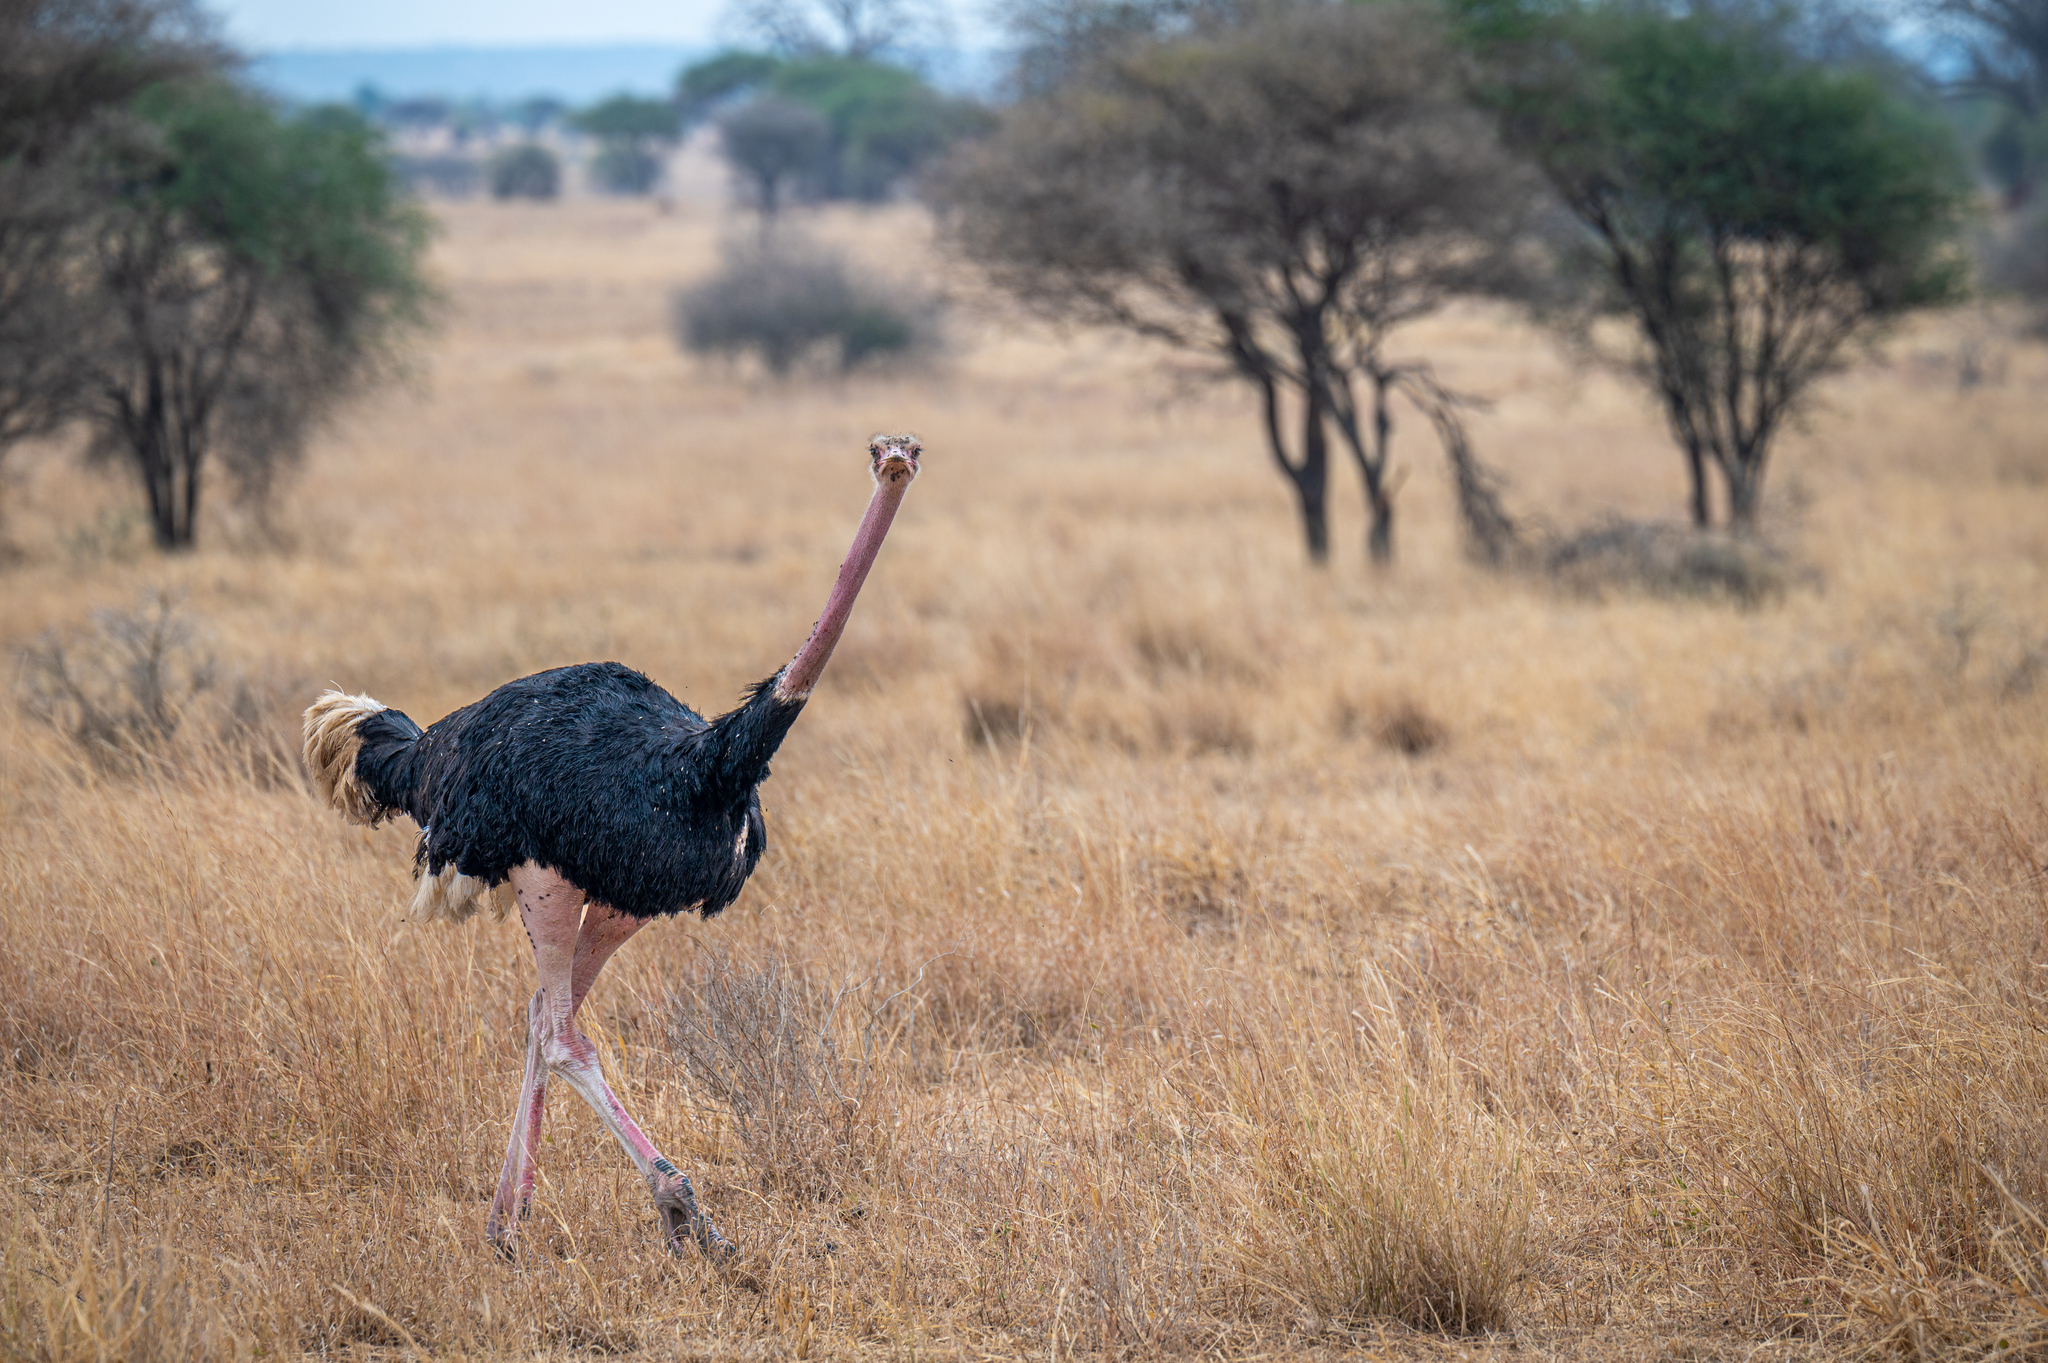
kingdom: Animalia
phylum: Chordata
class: Aves
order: Struthioniformes
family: Struthionidae
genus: Struthio
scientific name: Struthio camelus
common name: Common ostrich
